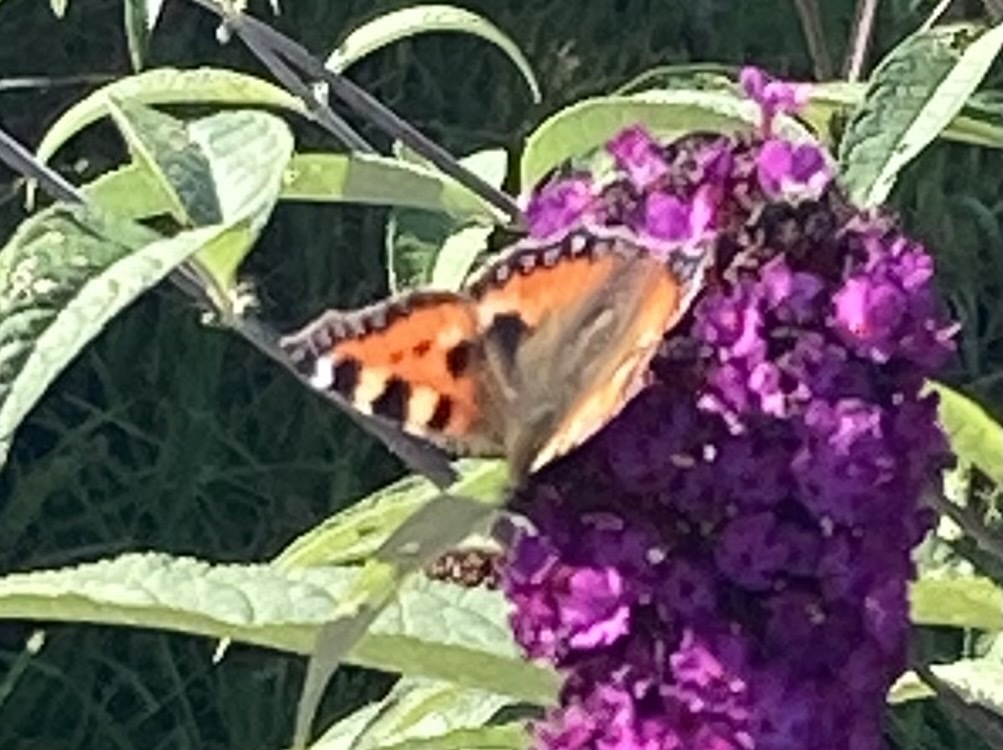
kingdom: Animalia
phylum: Arthropoda
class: Insecta
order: Lepidoptera
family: Nymphalidae
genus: Aglais
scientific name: Aglais urticae
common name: Small tortoiseshell
